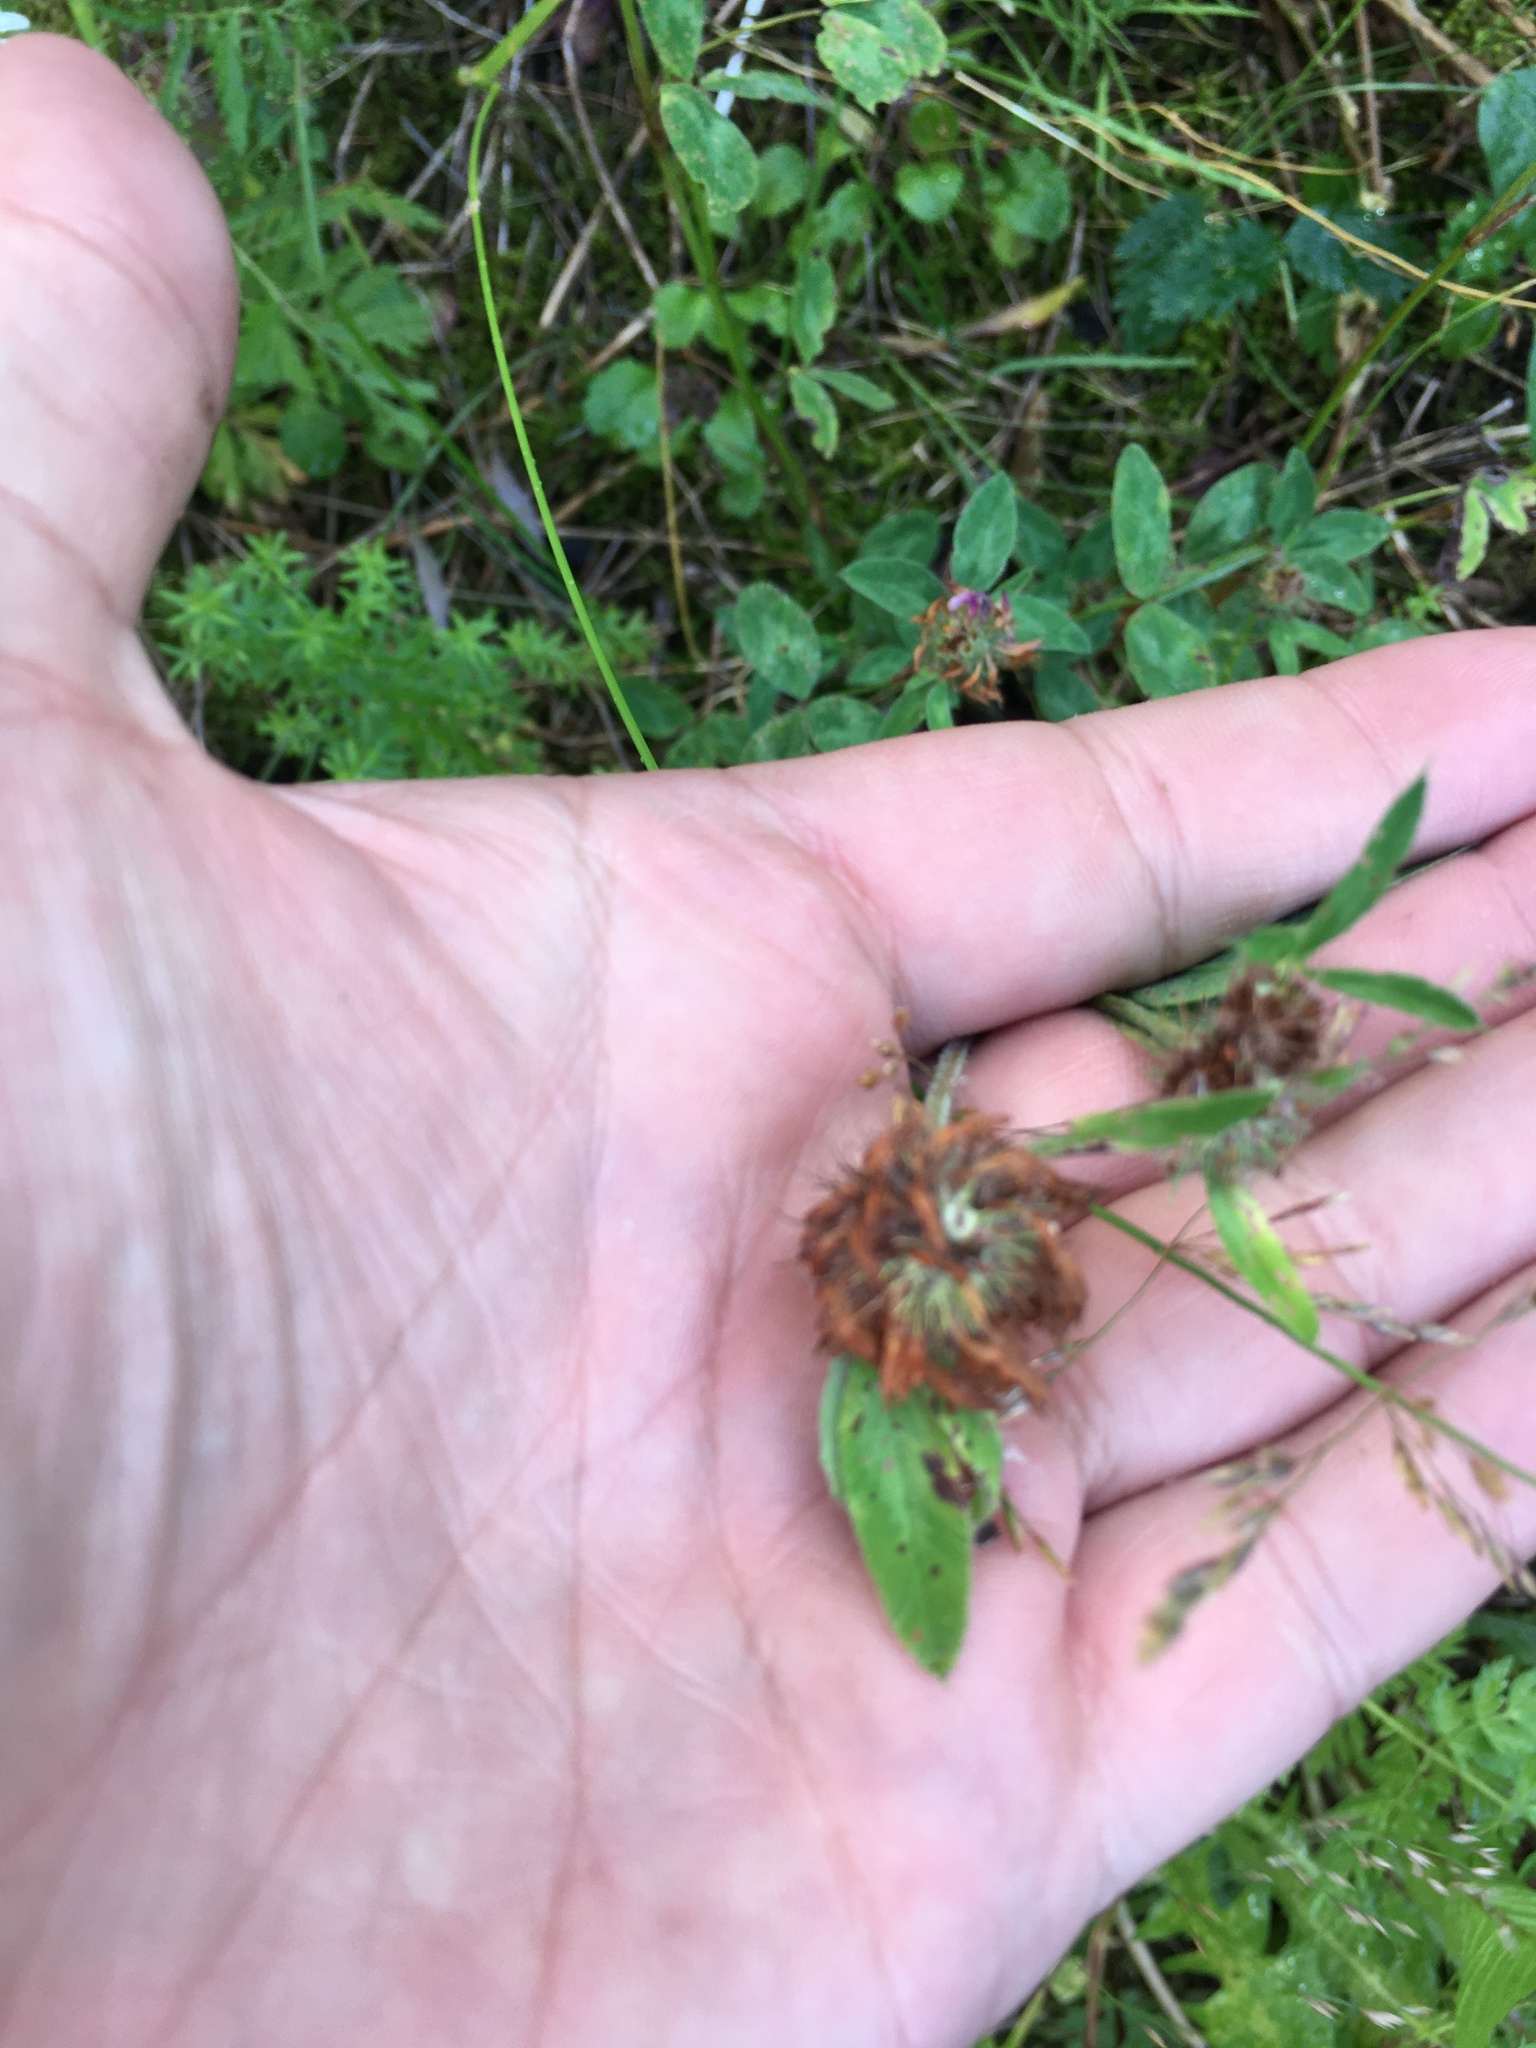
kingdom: Plantae
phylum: Tracheophyta
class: Magnoliopsida
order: Fabales
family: Fabaceae
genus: Trifolium
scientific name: Trifolium pratense
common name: Red clover
